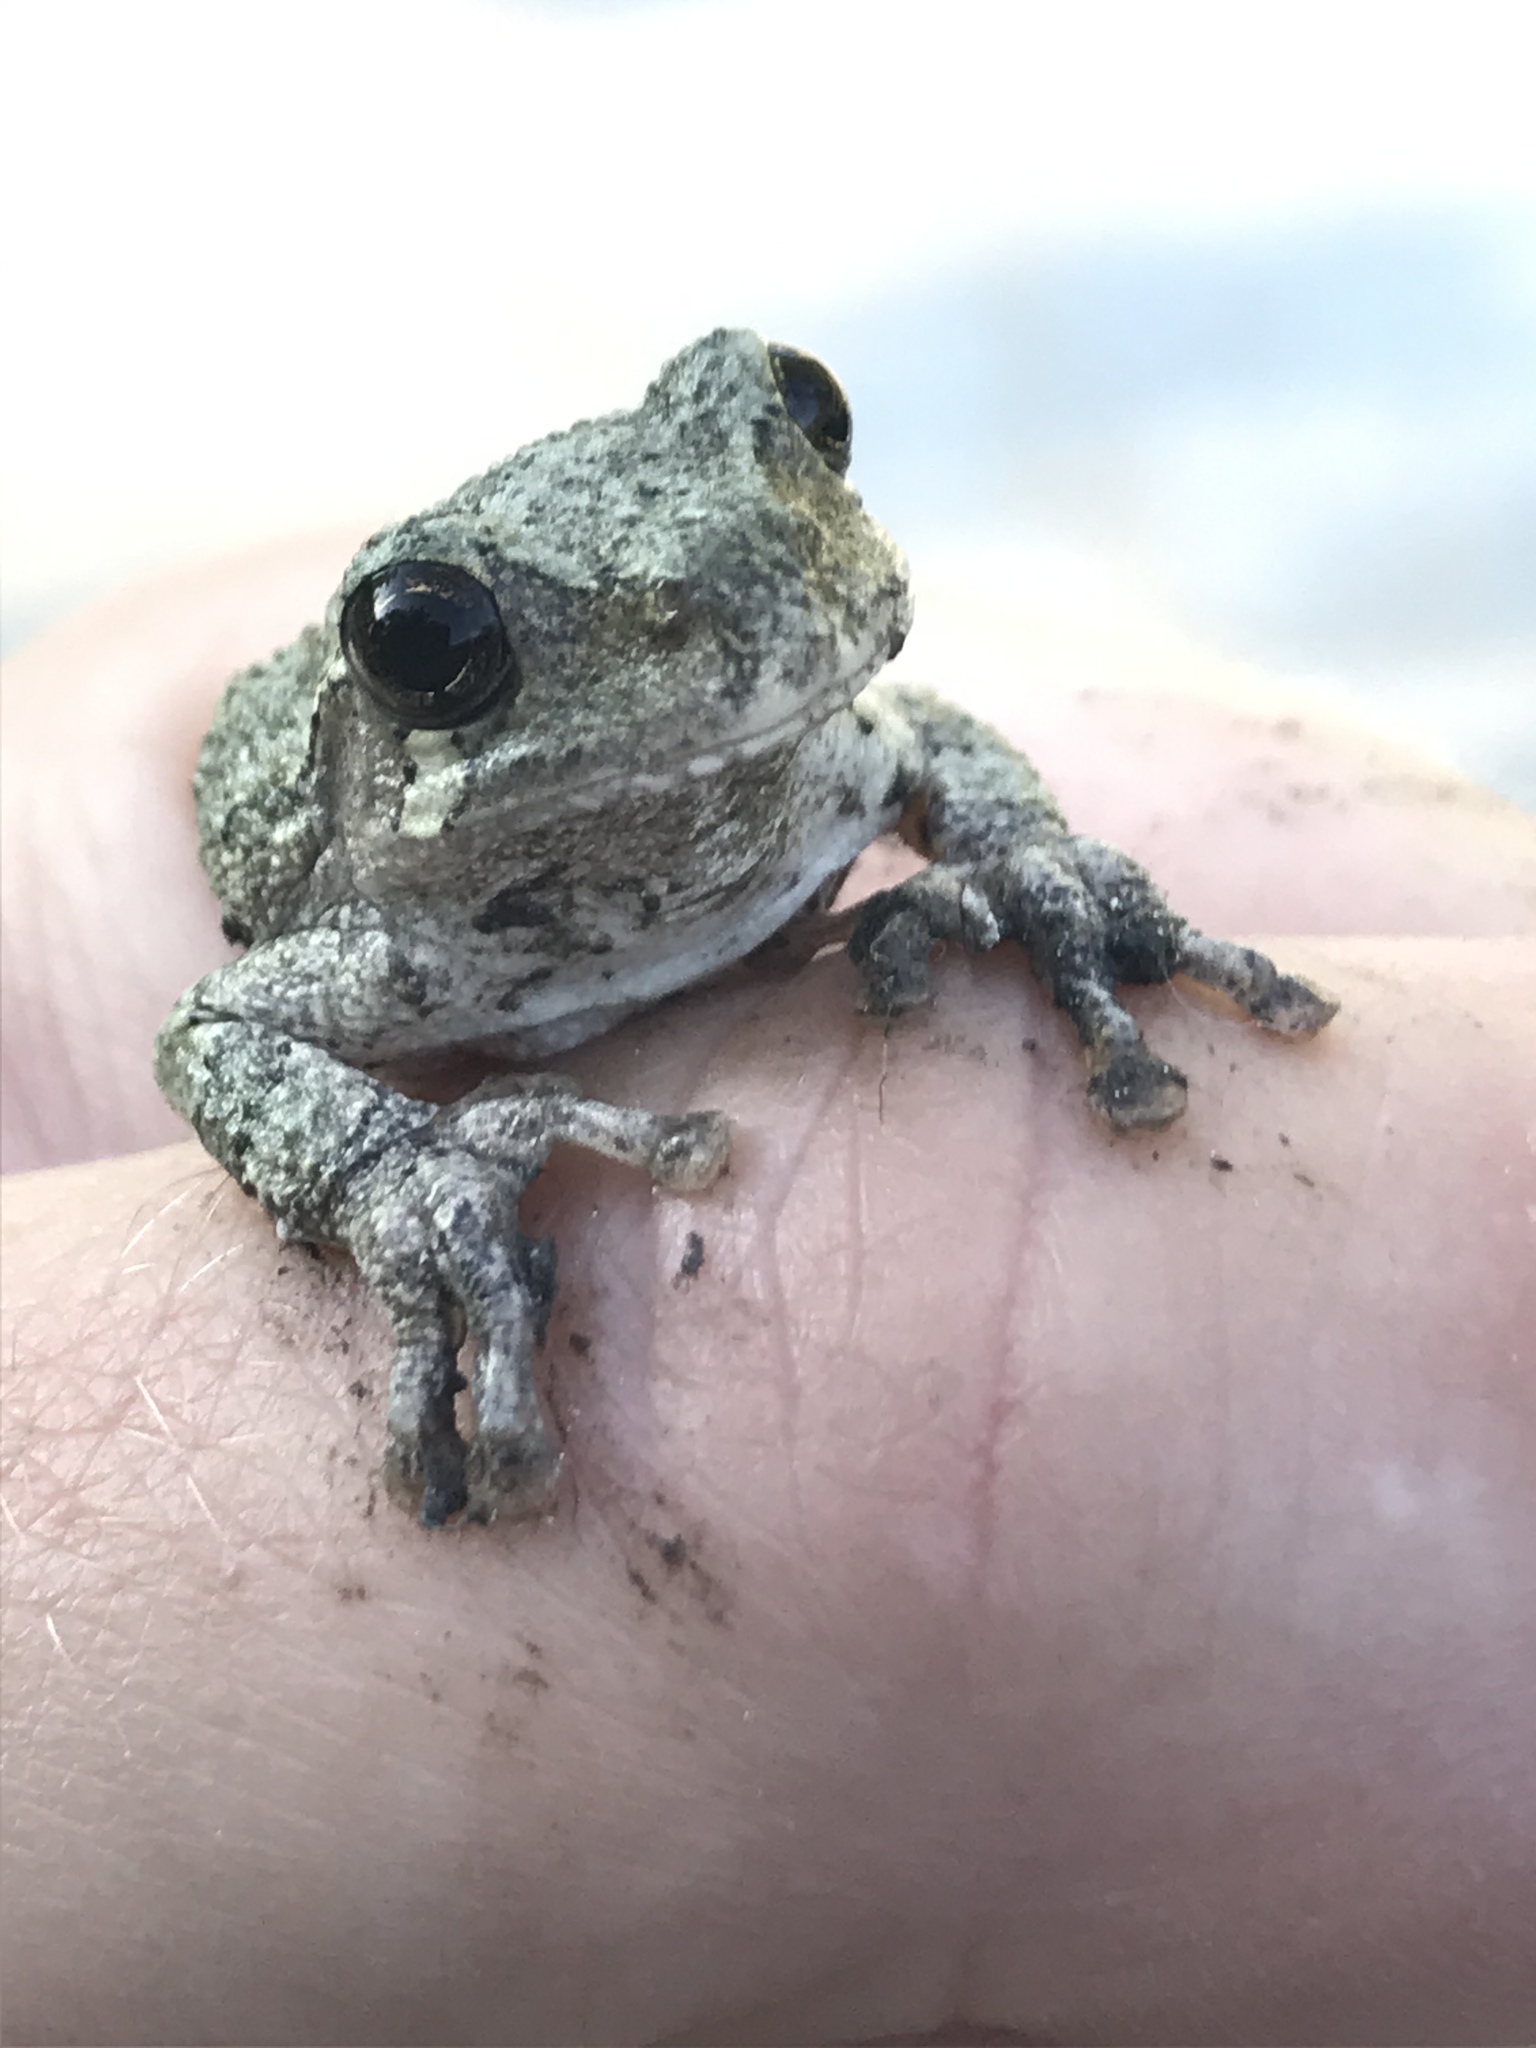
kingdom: Animalia
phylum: Chordata
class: Amphibia
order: Anura
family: Hylidae
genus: Dryophytes
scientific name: Dryophytes versicolor
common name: Gray treefrog
